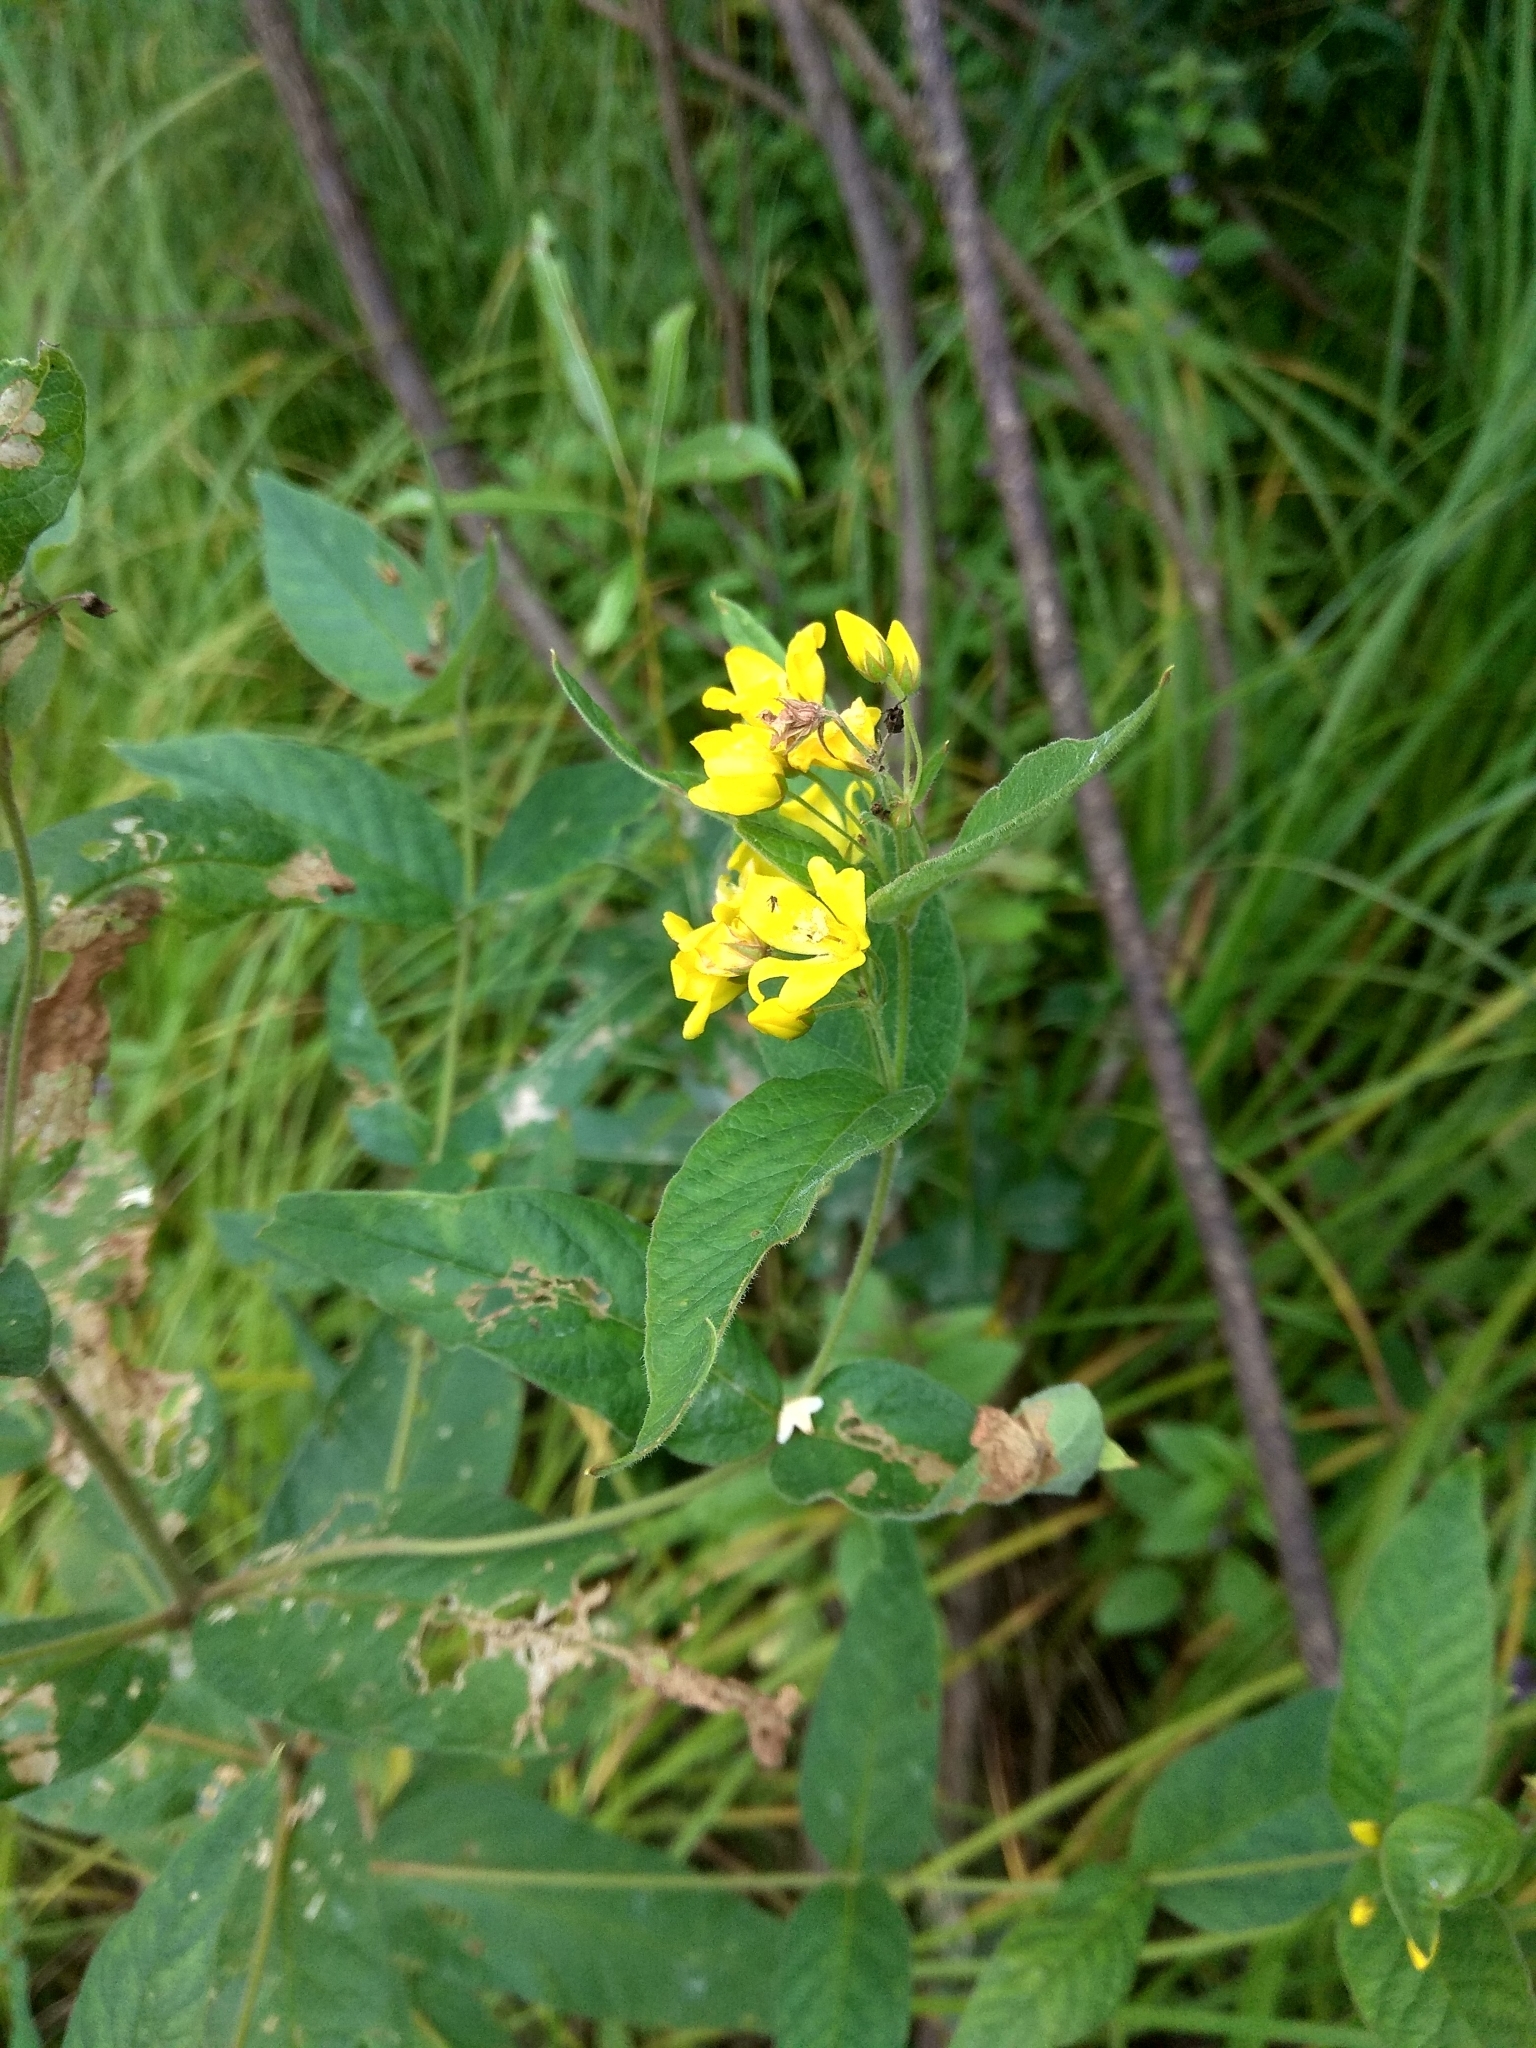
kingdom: Plantae
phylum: Tracheophyta
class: Magnoliopsida
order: Ericales
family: Primulaceae
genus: Lysimachia
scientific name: Lysimachia vulgaris
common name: Yellow loosestrife
